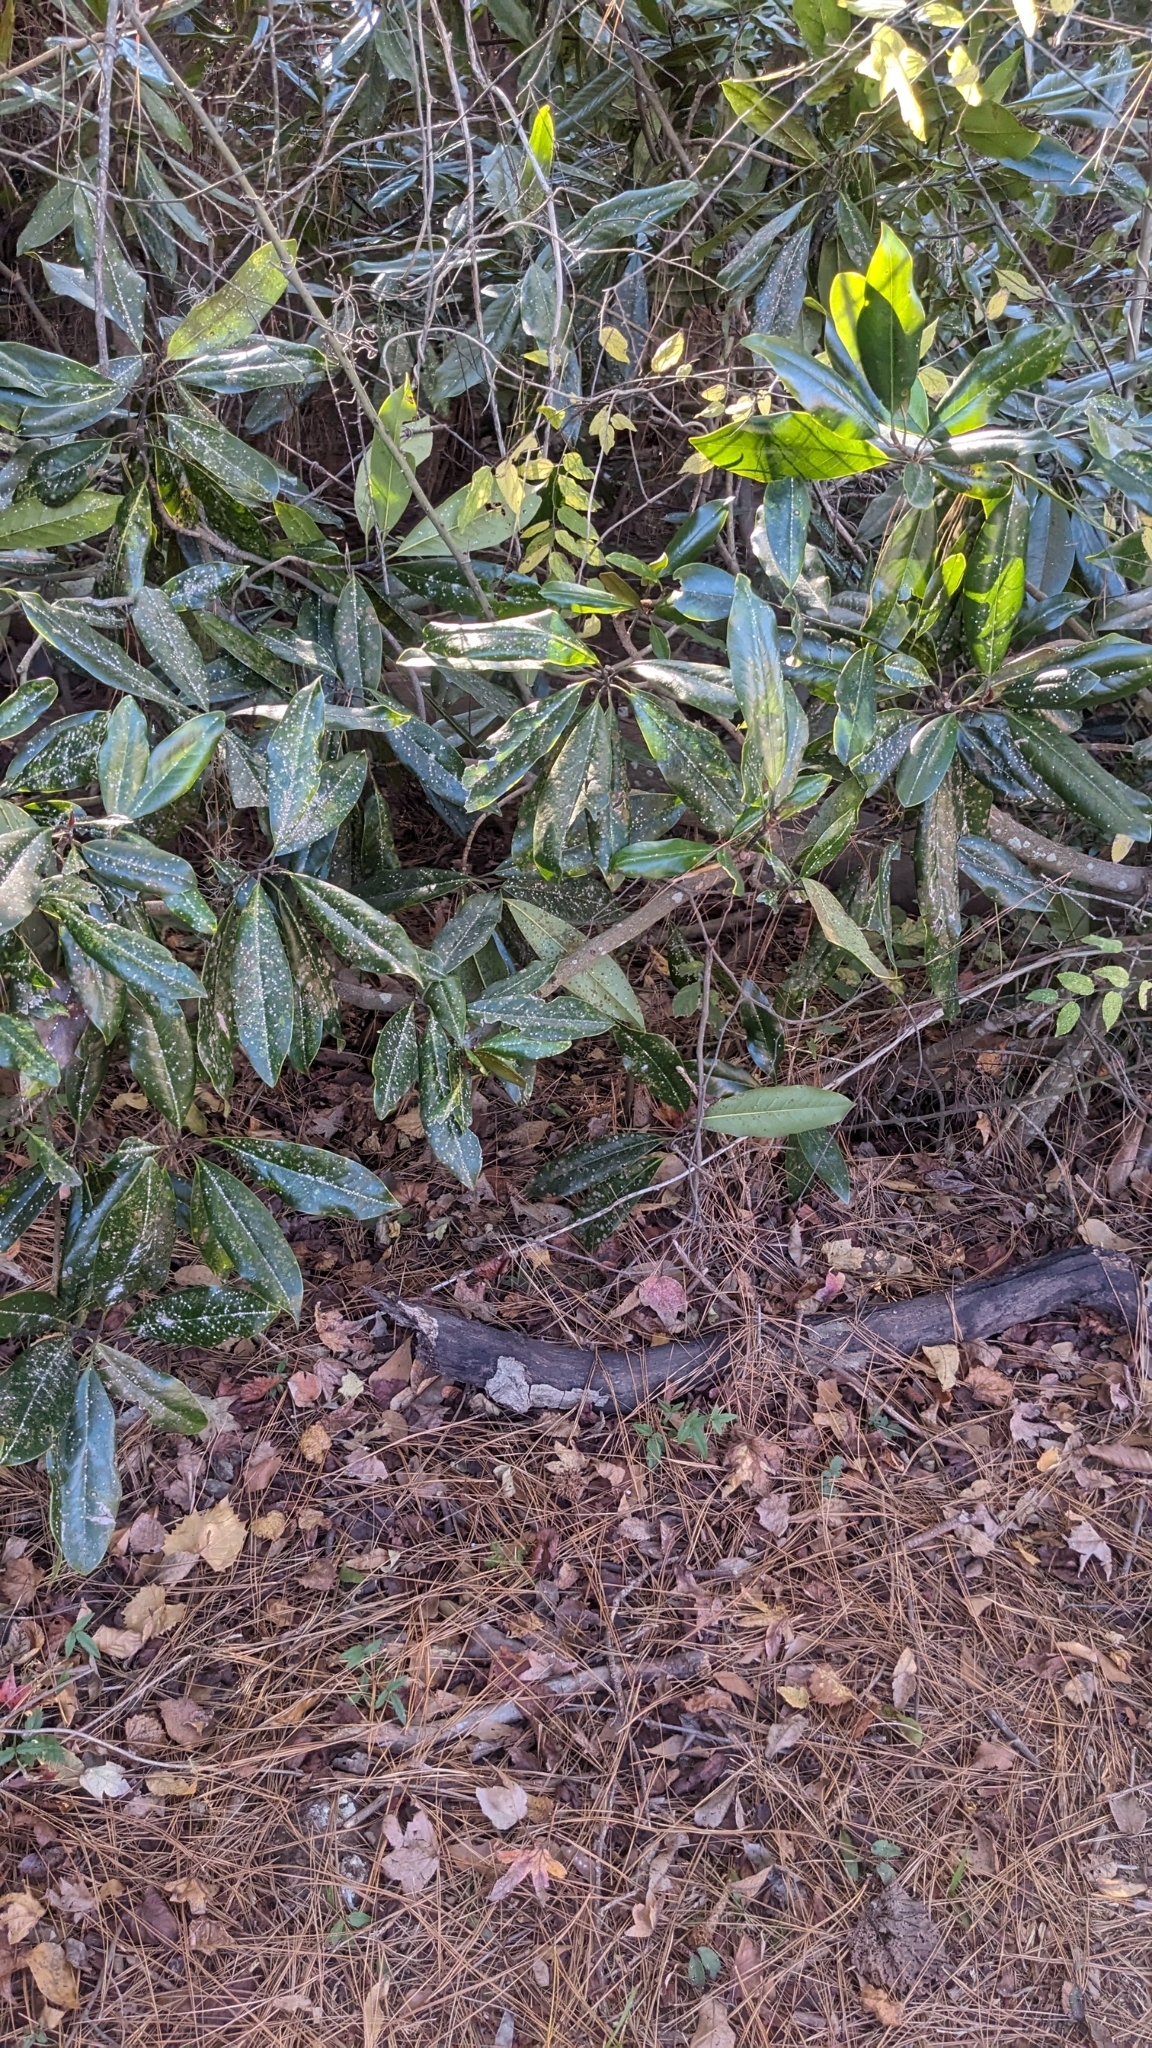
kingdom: Animalia
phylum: Arthropoda
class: Insecta
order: Hemiptera
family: Diaspididae
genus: Pseudaulacaspis
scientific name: Pseudaulacaspis cockerelli
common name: False oleander scale
